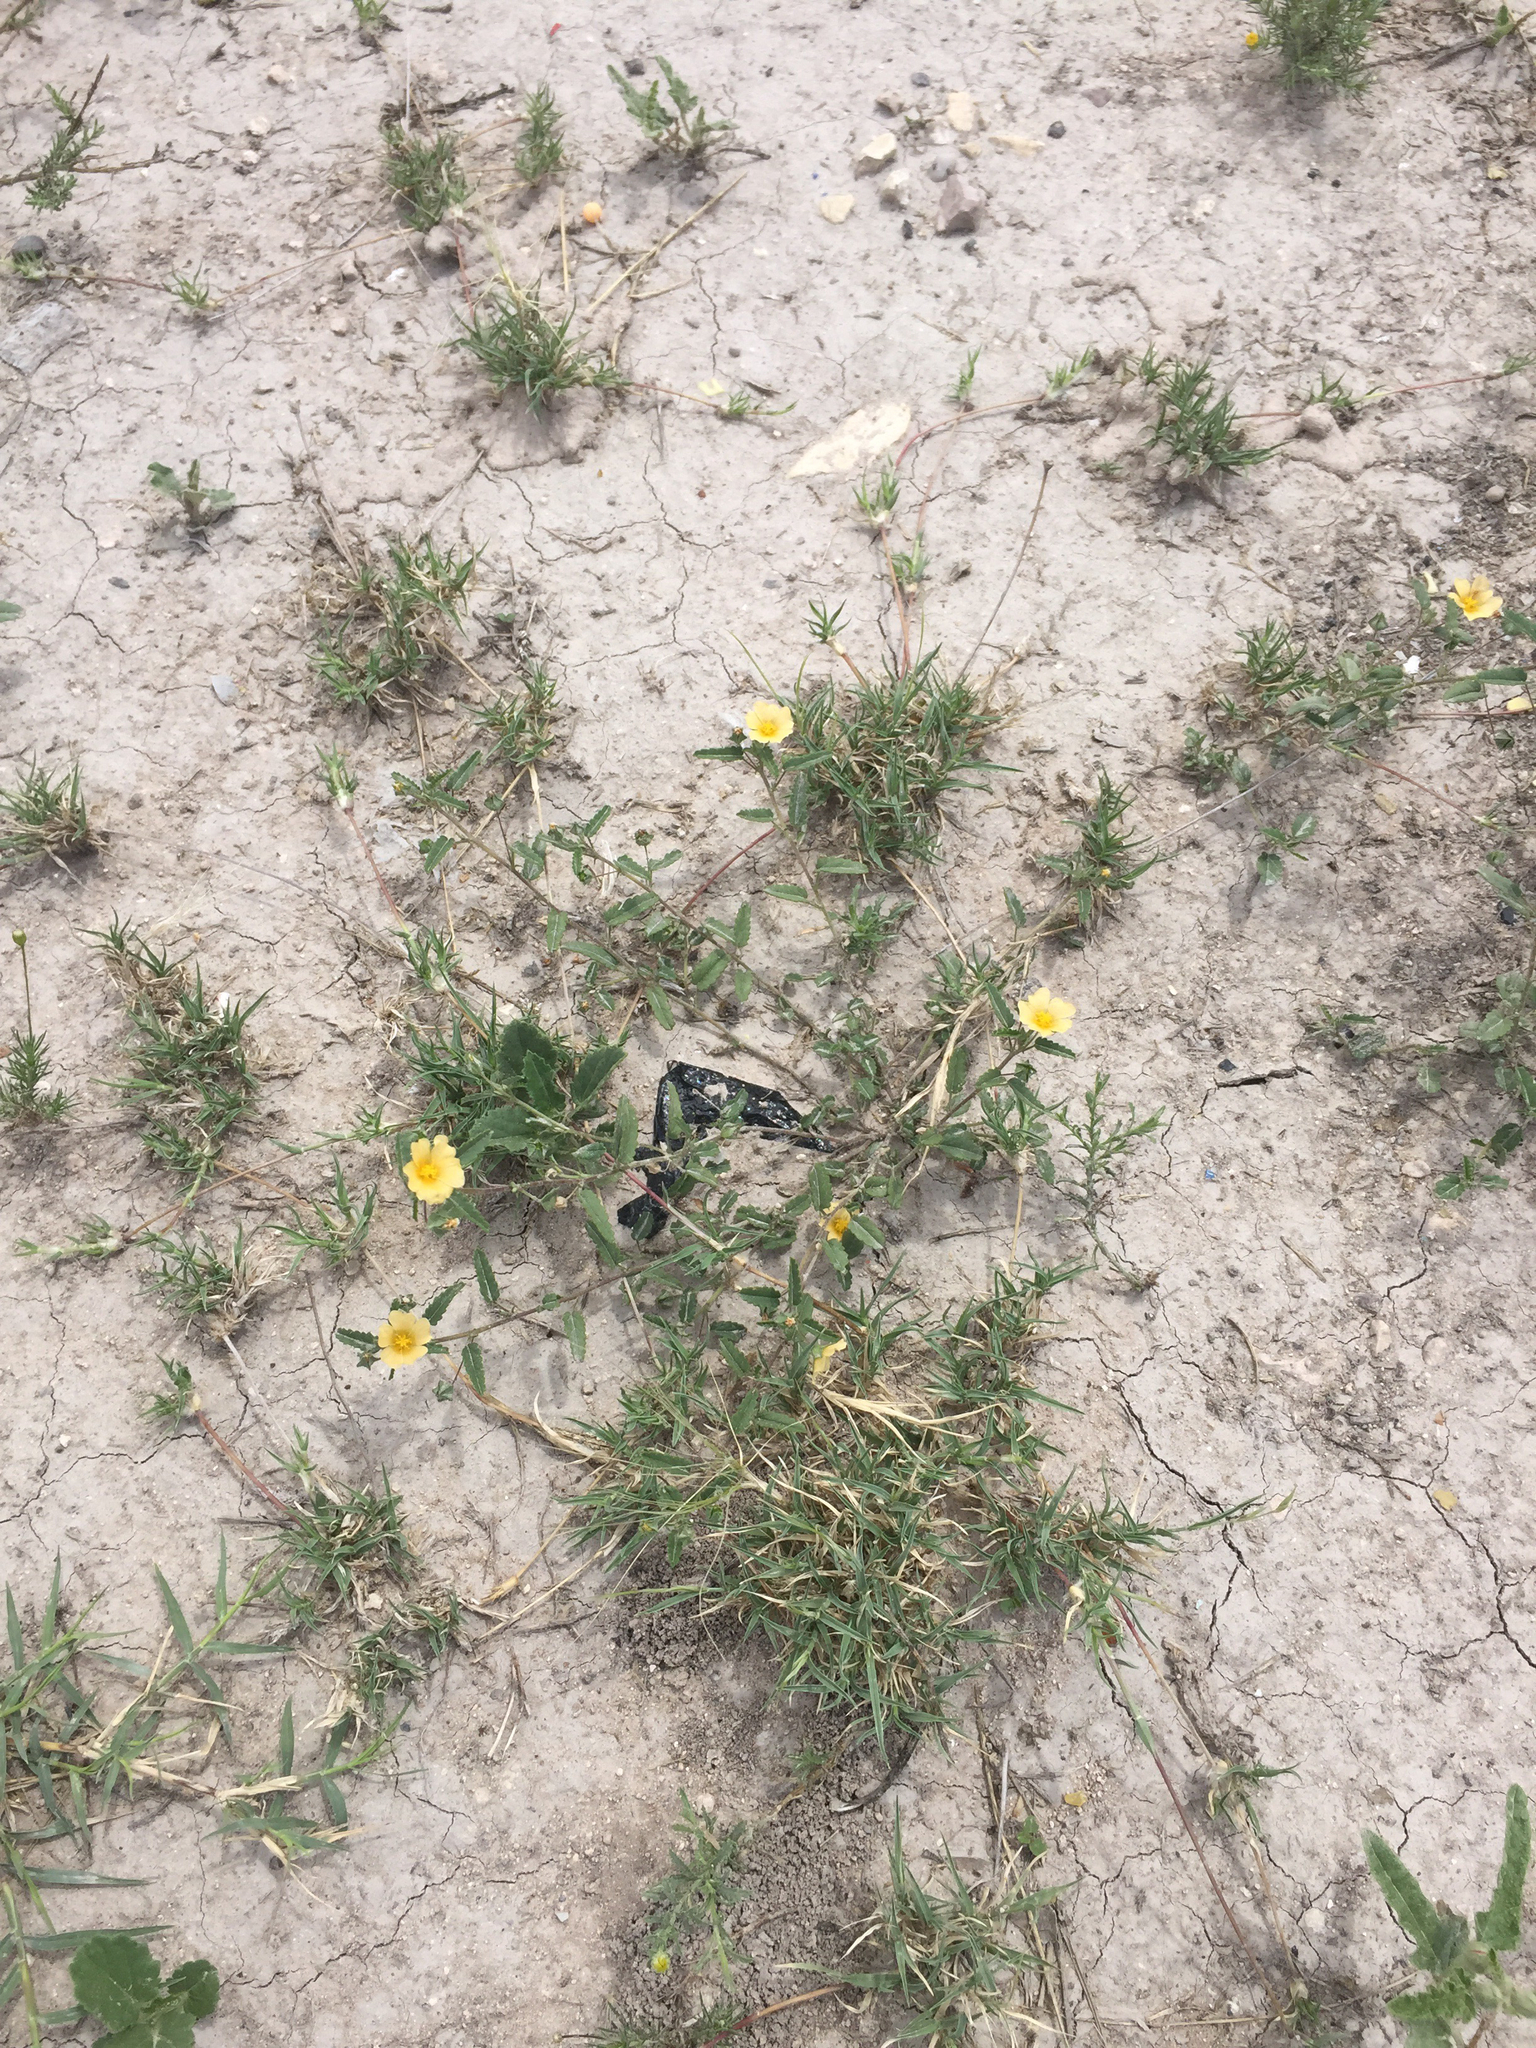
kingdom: Plantae
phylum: Tracheophyta
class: Magnoliopsida
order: Malvales
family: Malvaceae
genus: Sida
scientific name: Sida abutilifolia
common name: Spreading fanpetals
